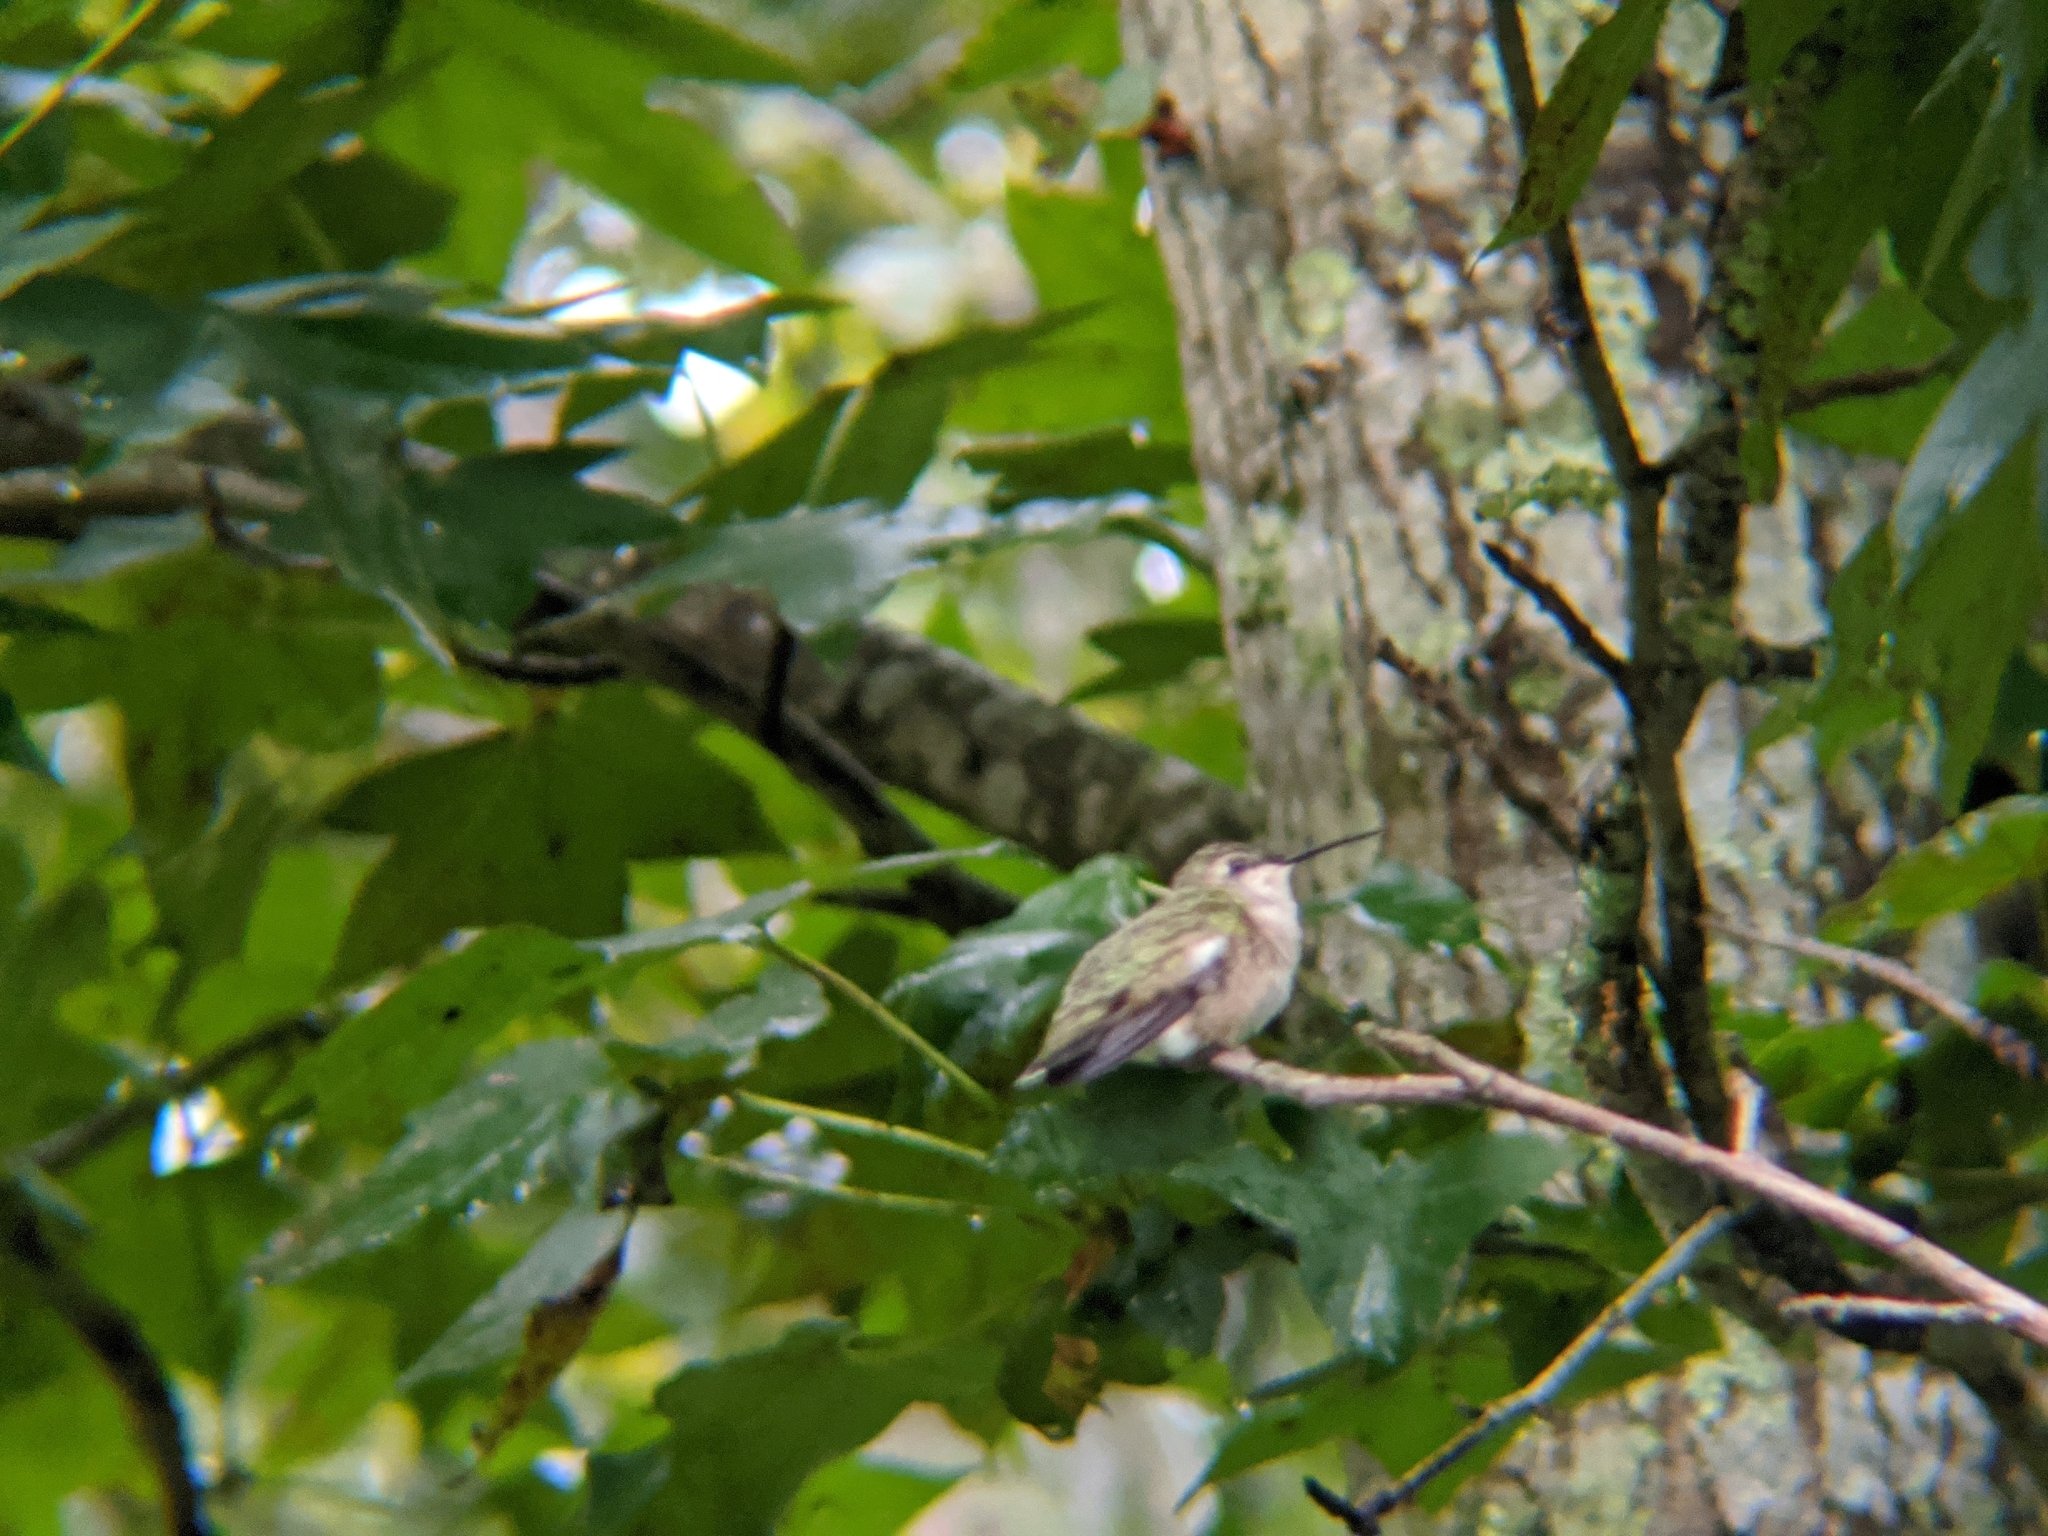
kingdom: Animalia
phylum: Chordata
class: Aves
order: Apodiformes
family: Trochilidae
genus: Archilochus
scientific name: Archilochus colubris
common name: Ruby-throated hummingbird
